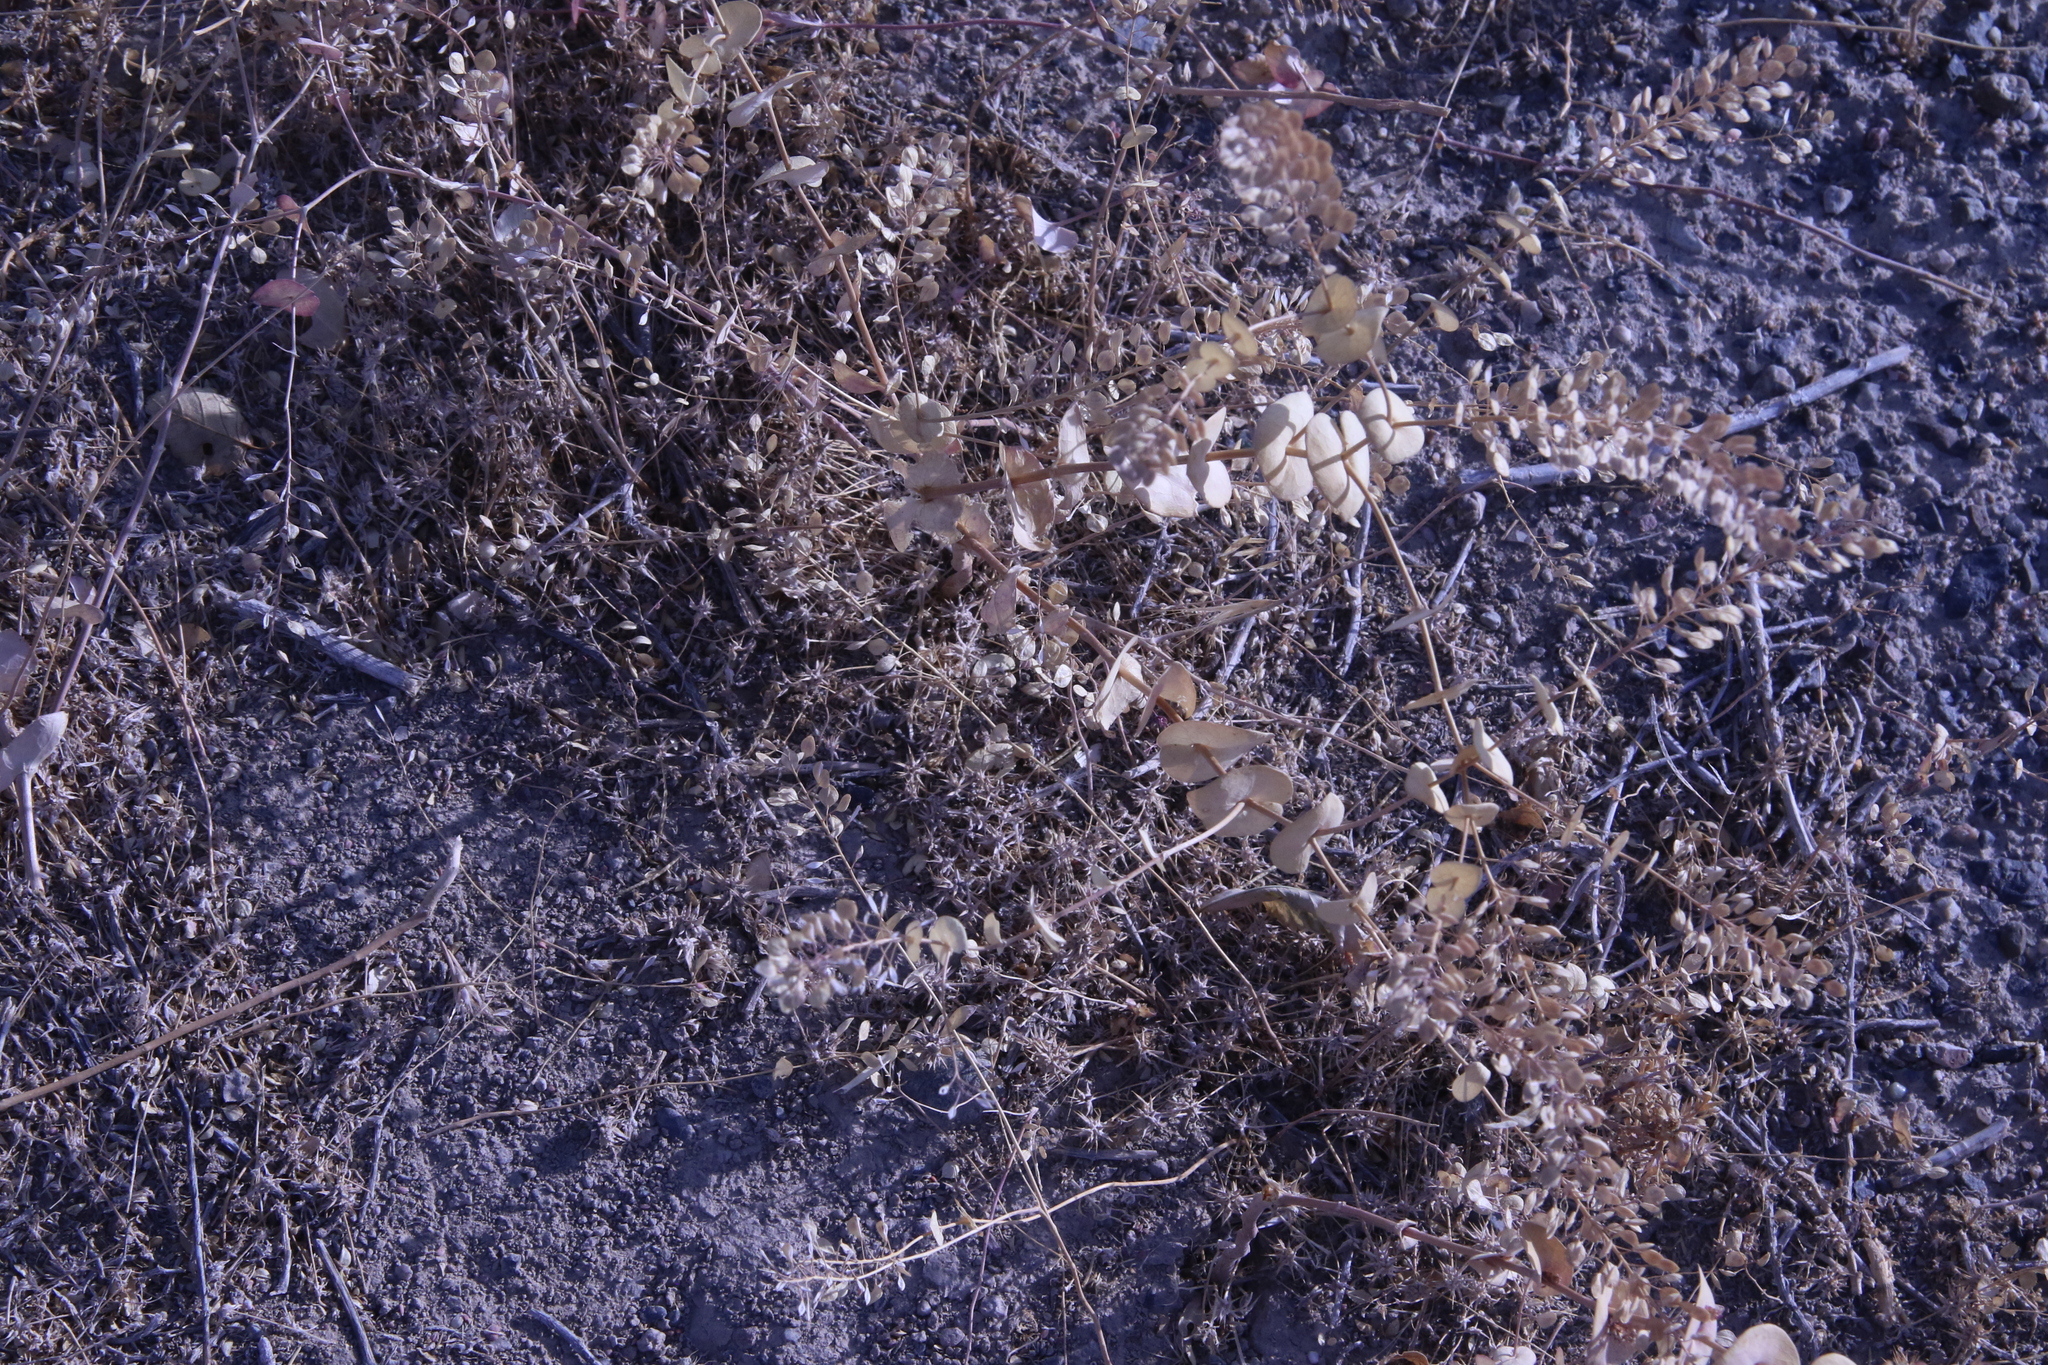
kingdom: Plantae
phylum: Tracheophyta
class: Magnoliopsida
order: Brassicales
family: Brassicaceae
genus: Lepidium
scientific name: Lepidium perfoliatum
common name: Perfoliate pepperwort
